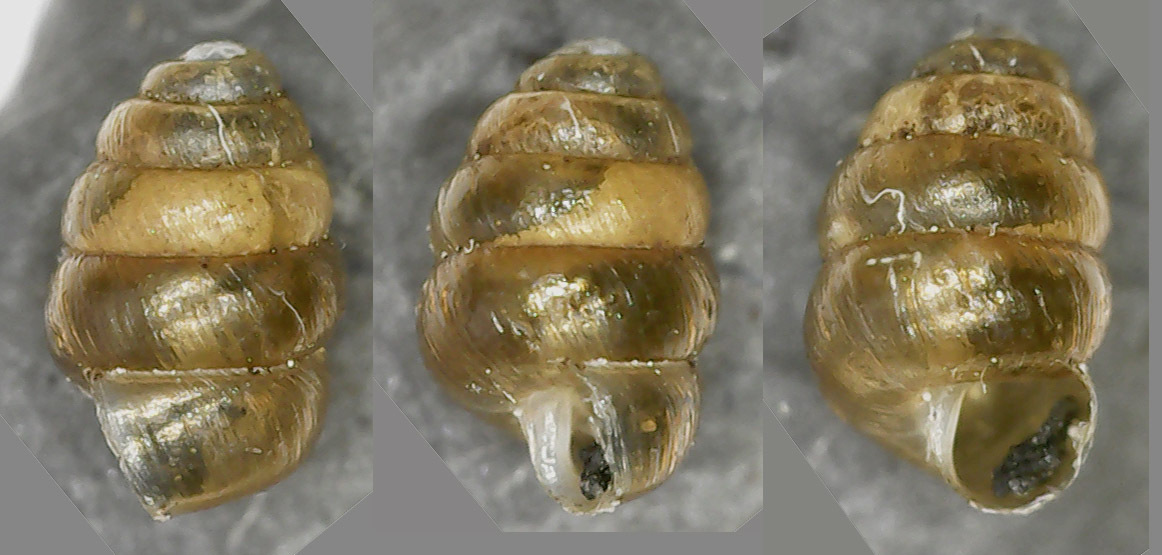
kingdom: Animalia
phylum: Mollusca
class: Gastropoda
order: Stylommatophora
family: Truncatellinidae
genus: Columella
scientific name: Columella edentula
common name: Toothless chrysalis snail
